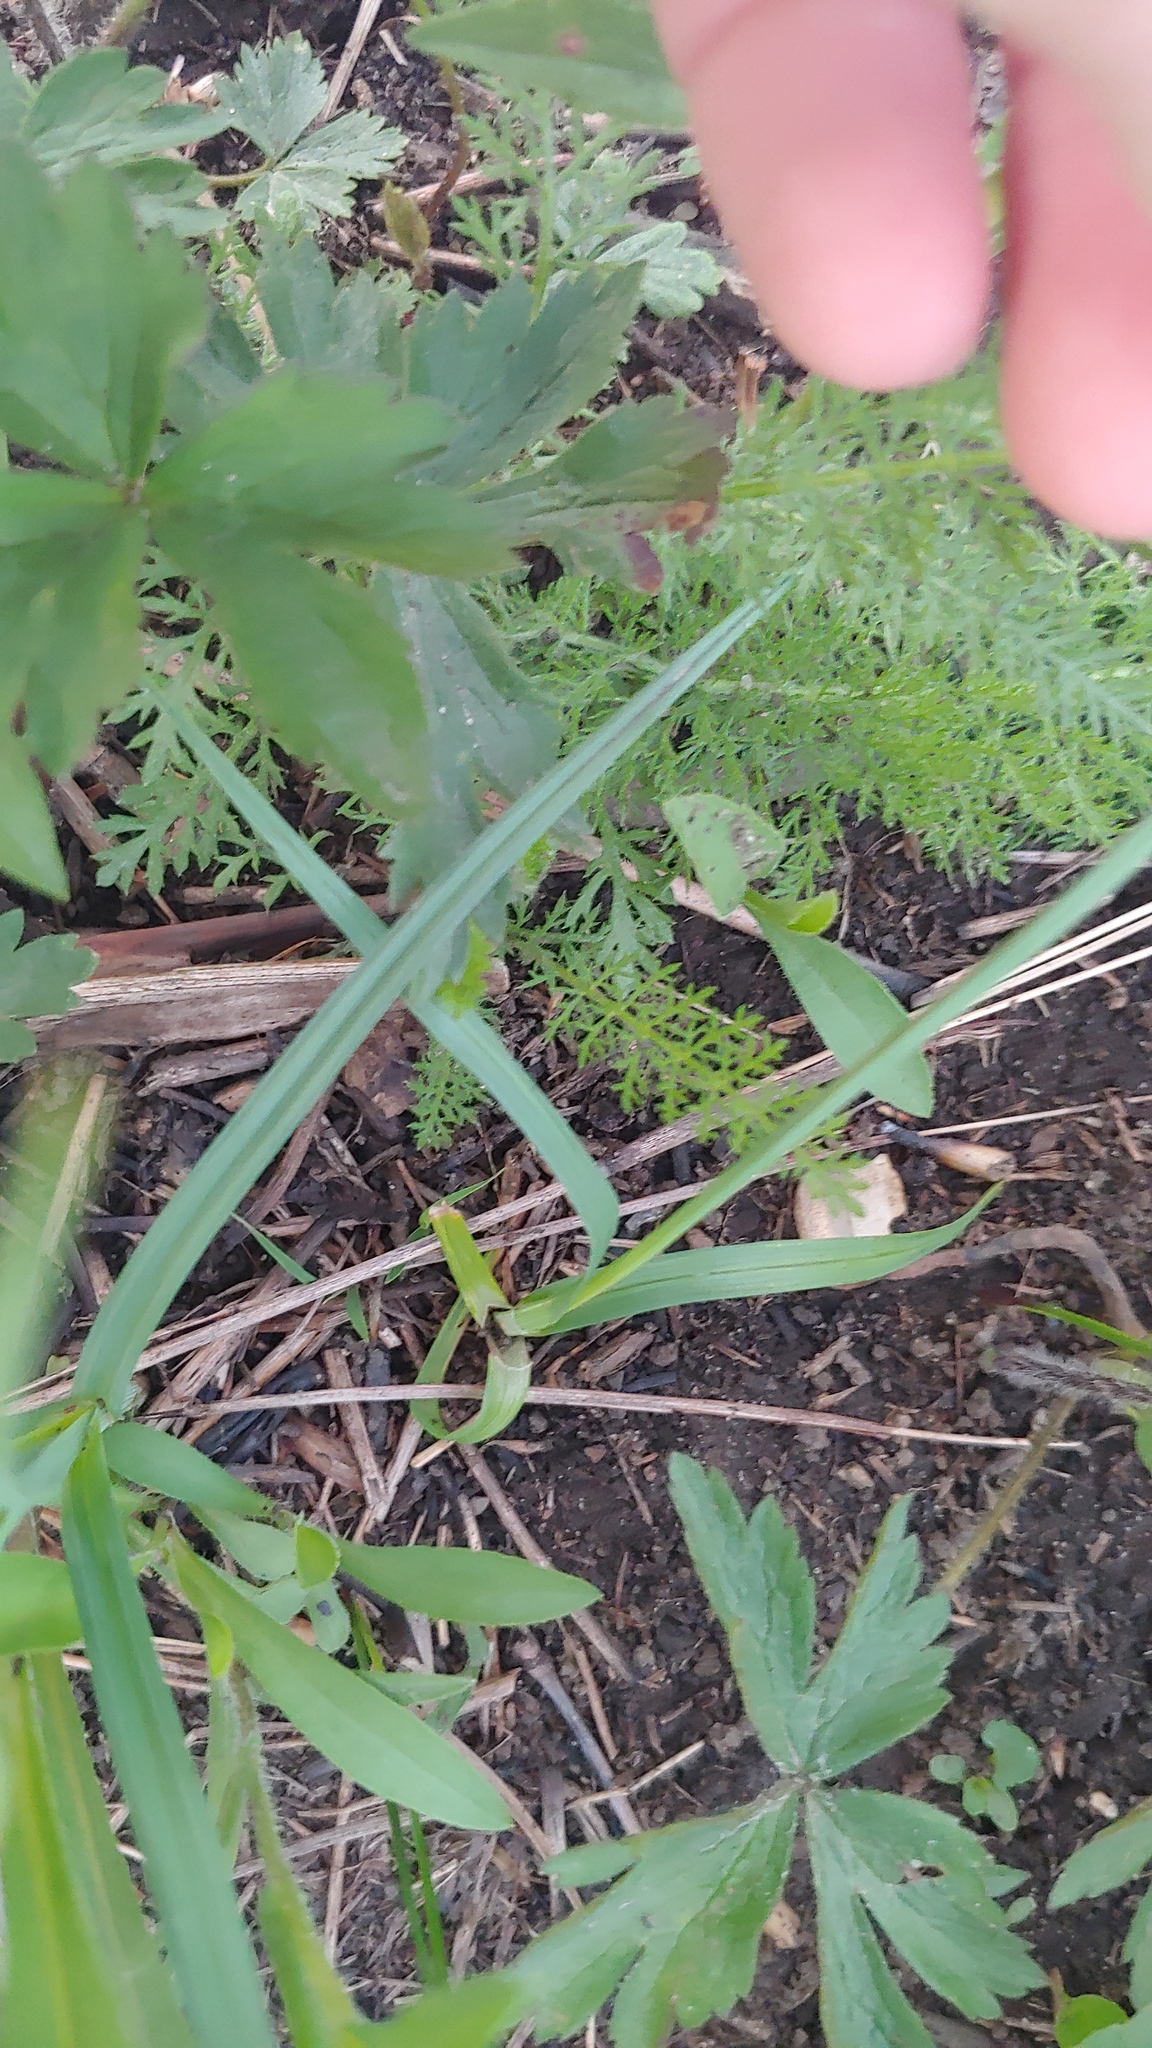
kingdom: Plantae
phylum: Tracheophyta
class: Liliopsida
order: Poales
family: Cyperaceae
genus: Carex
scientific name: Carex meadii
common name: Mead's sedge
